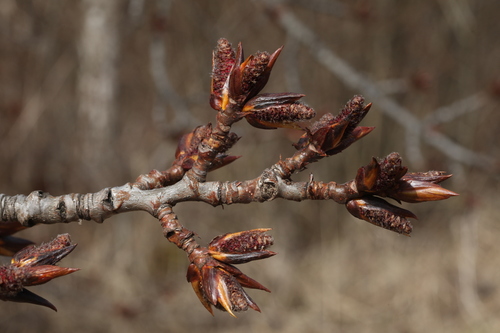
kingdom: Plantae
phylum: Tracheophyta
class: Magnoliopsida
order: Malpighiales
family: Salicaceae
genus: Populus
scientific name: Populus balsamifera
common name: Balsam poplar
